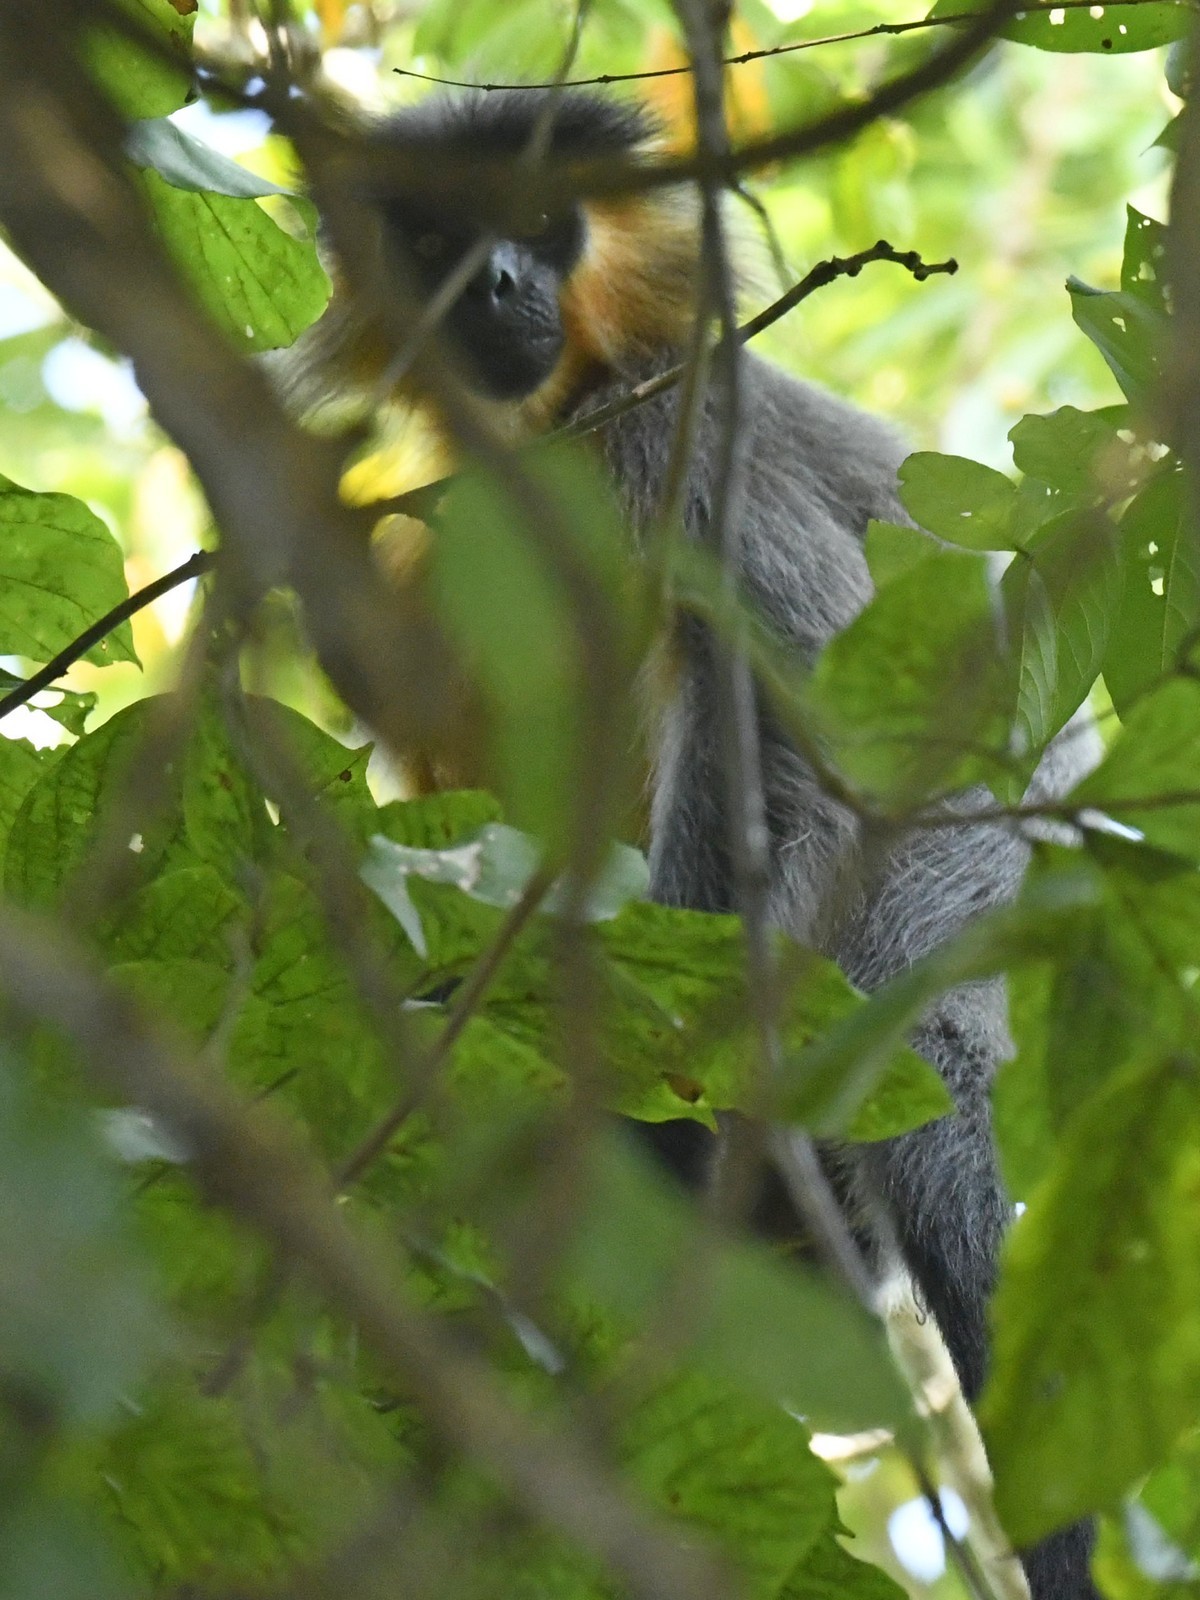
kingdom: Animalia
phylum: Chordata
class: Mammalia
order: Primates
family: Cercopithecidae
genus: Trachypithecus
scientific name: Trachypithecus pileatus
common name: Capped langur
